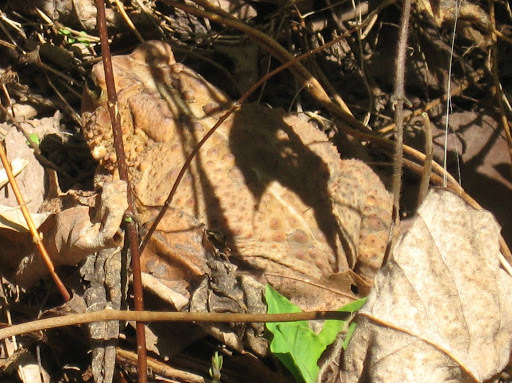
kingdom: Animalia
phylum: Chordata
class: Amphibia
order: Anura
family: Bufonidae
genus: Anaxyrus
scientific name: Anaxyrus americanus
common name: American toad
